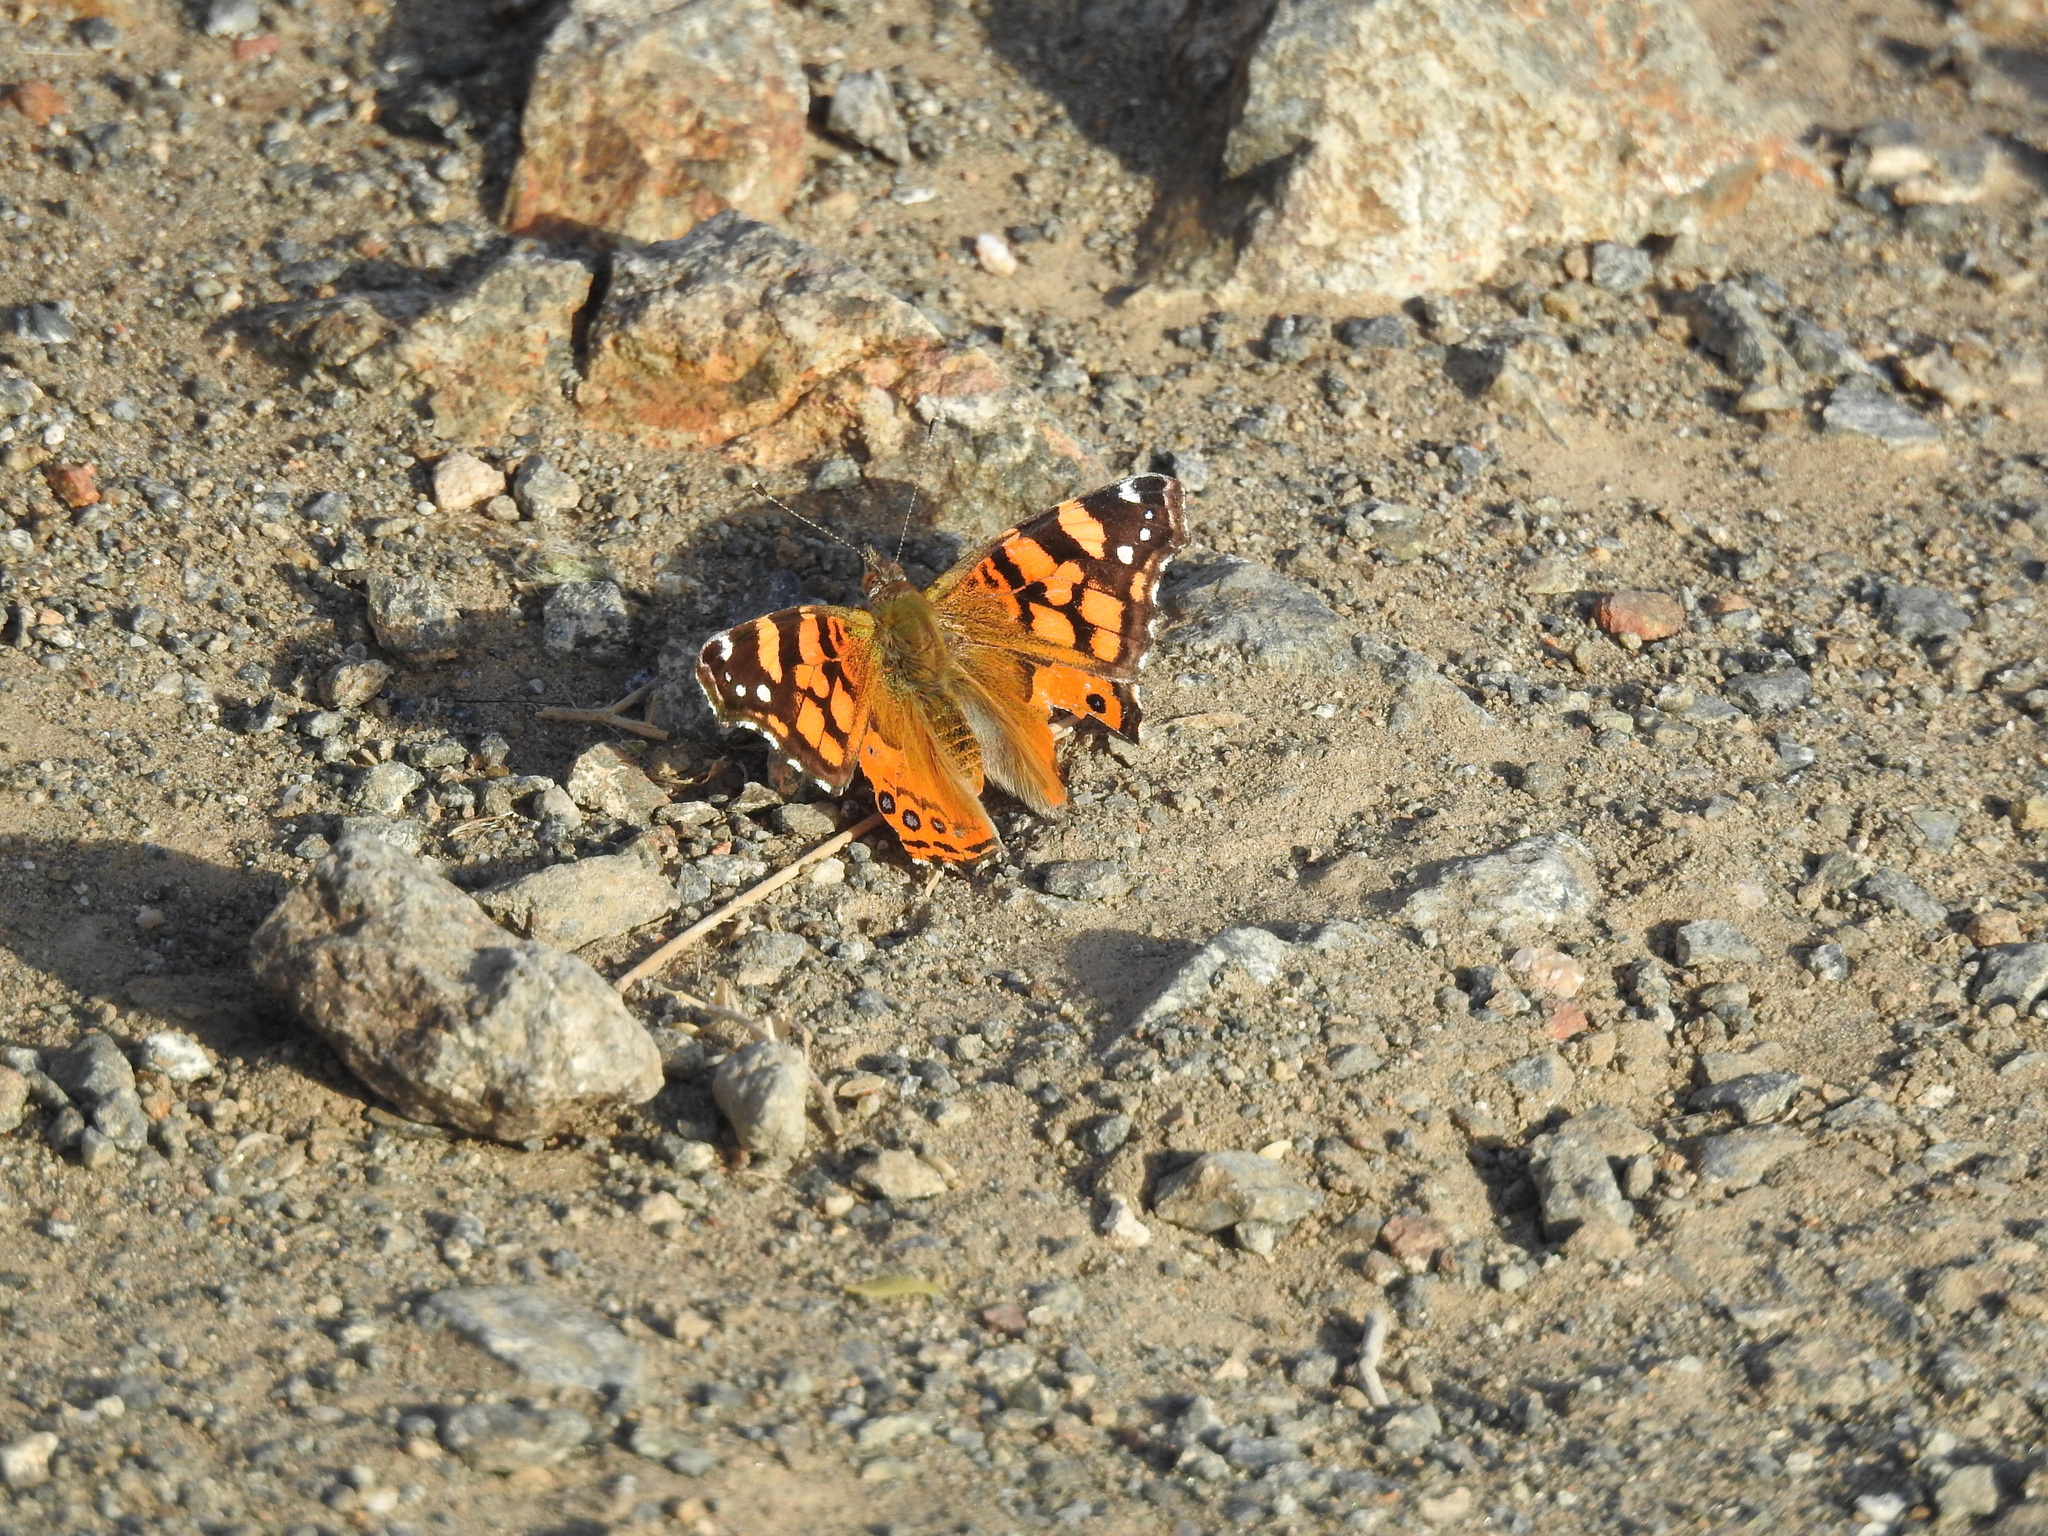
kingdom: Animalia
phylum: Arthropoda
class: Insecta
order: Lepidoptera
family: Nymphalidae
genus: Vanessa
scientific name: Vanessa annabella
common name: West coast lady
